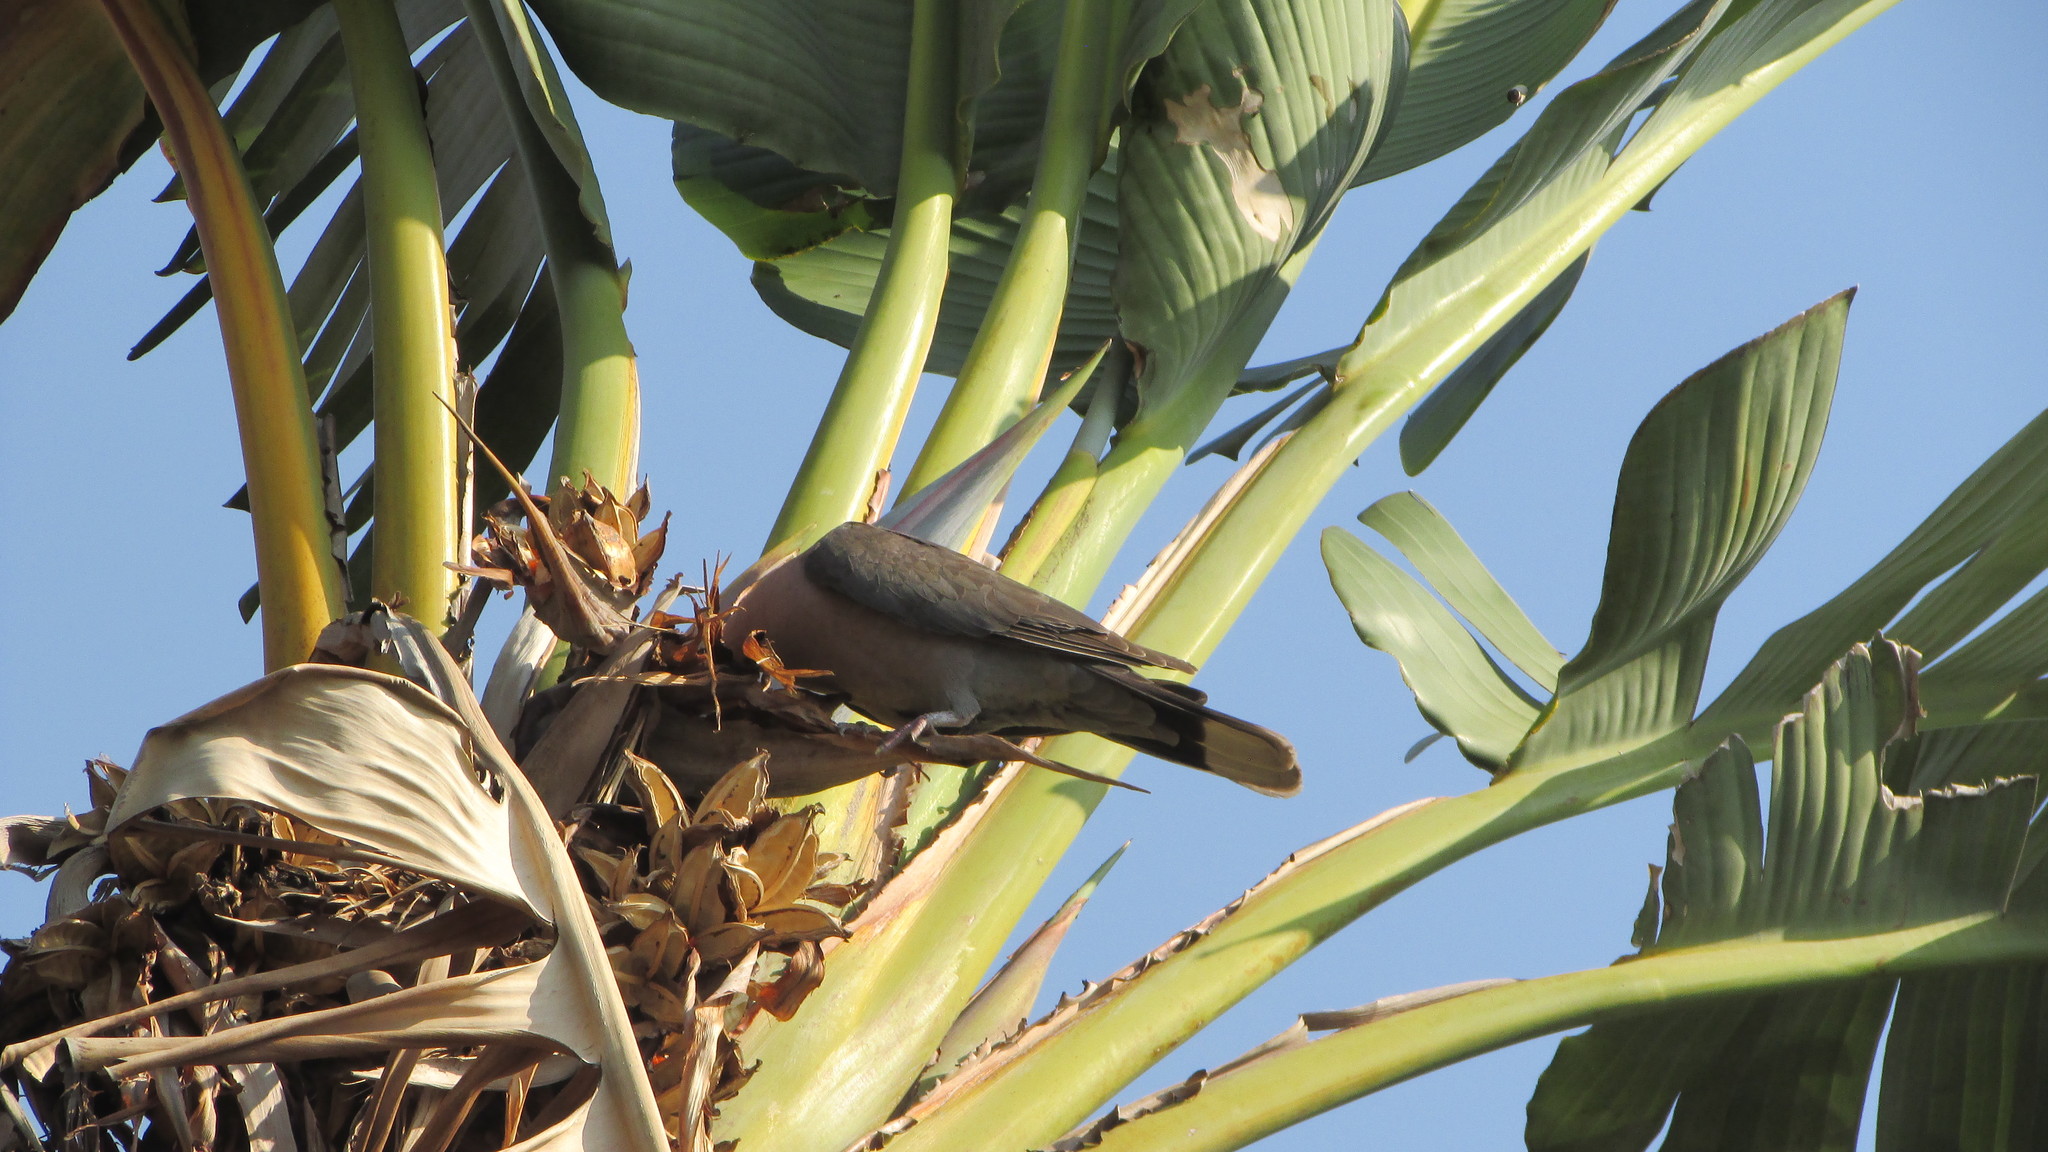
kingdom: Animalia
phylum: Chordata
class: Aves
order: Columbiformes
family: Columbidae
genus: Streptopelia
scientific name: Streptopelia semitorquata
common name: Red-eyed dove
